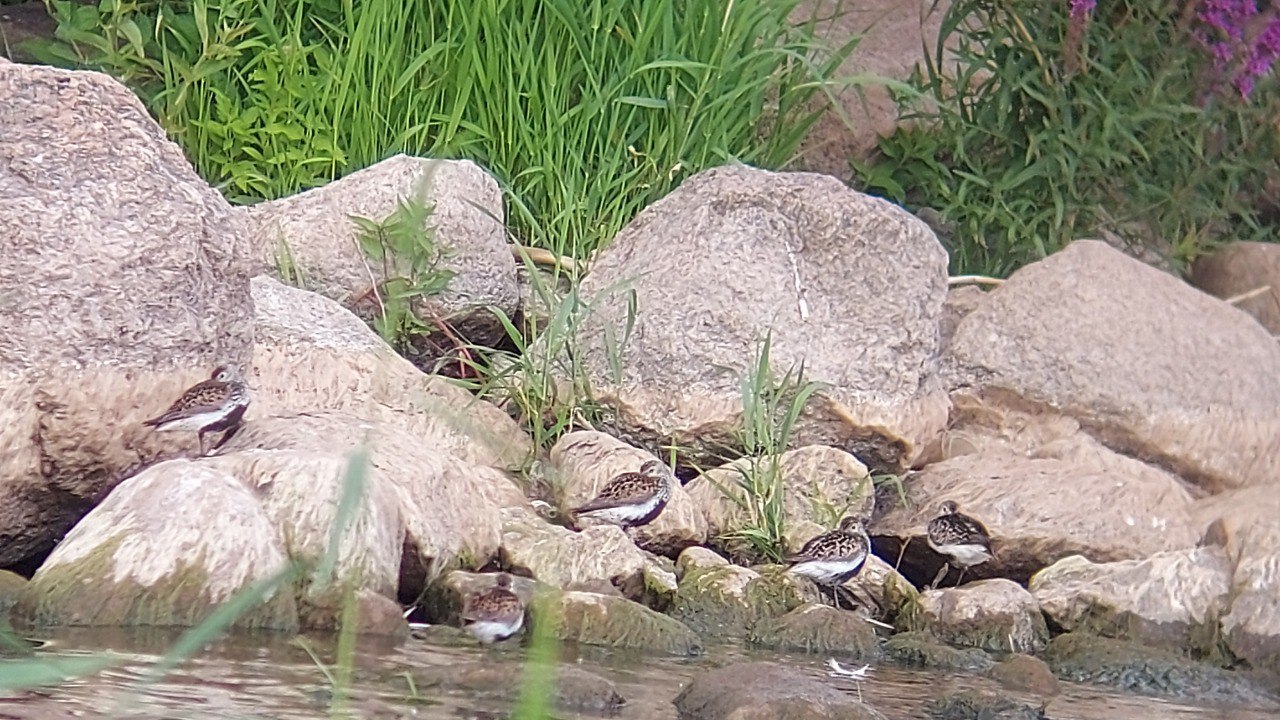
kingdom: Animalia
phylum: Chordata
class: Aves
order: Charadriiformes
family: Scolopacidae
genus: Calidris
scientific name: Calidris alpina
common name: Dunlin
